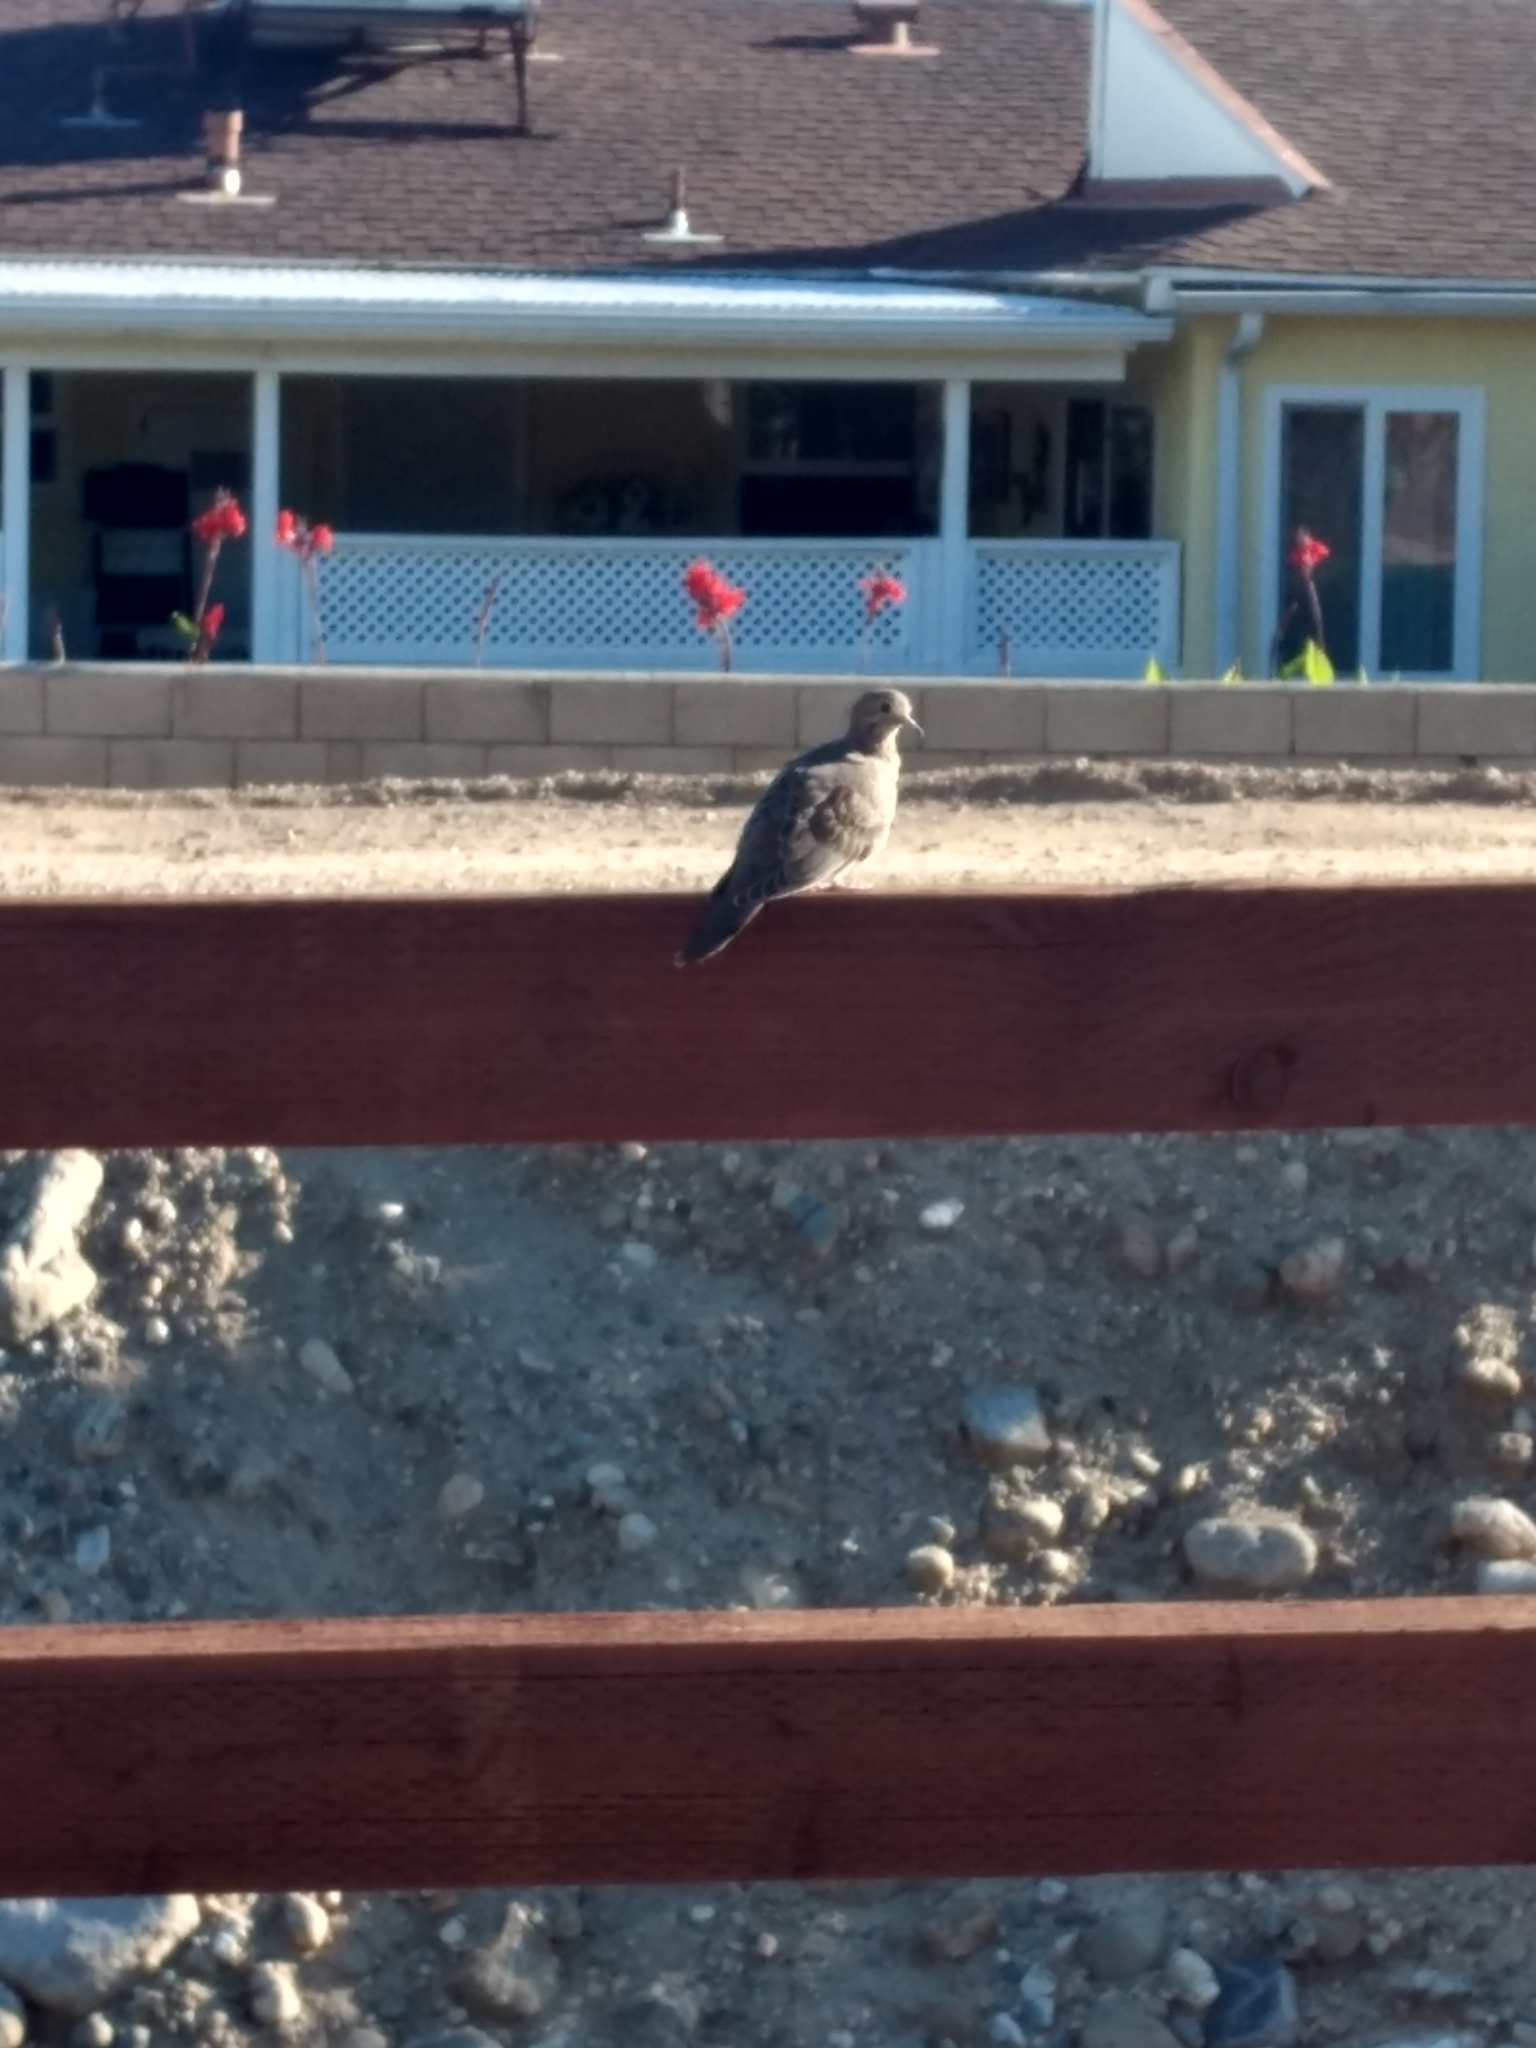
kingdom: Animalia
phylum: Chordata
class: Aves
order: Columbiformes
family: Columbidae
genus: Zenaida
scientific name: Zenaida macroura
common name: Mourning dove
